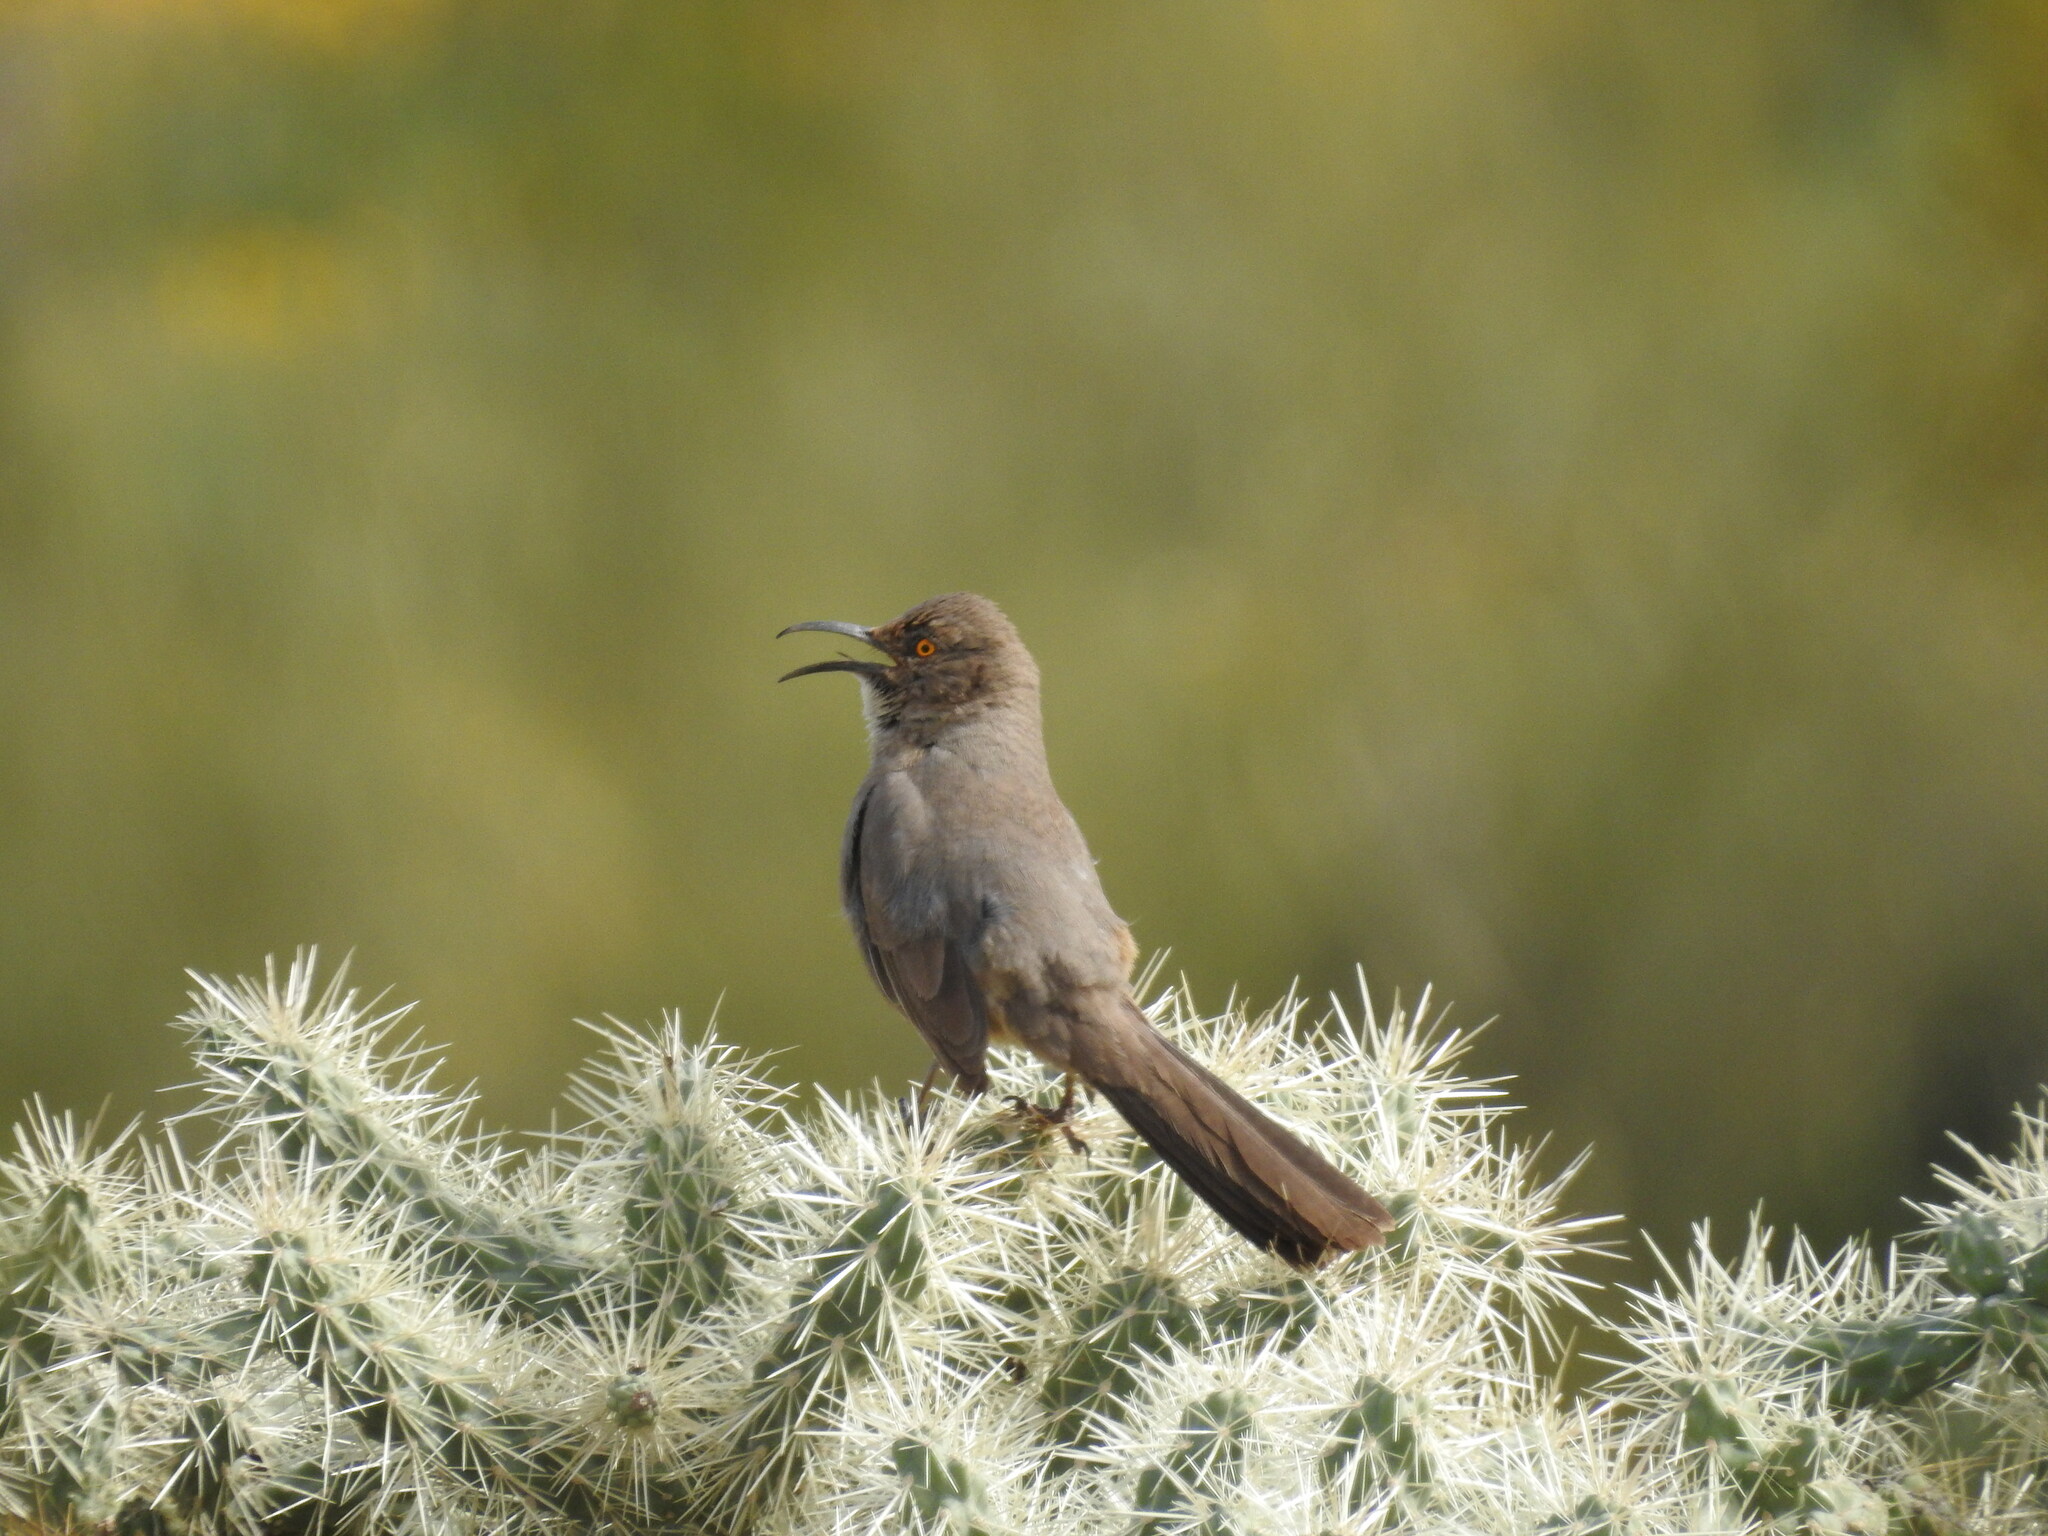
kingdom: Animalia
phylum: Chordata
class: Aves
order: Passeriformes
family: Mimidae
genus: Toxostoma
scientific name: Toxostoma curvirostre
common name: Curve-billed thrasher
